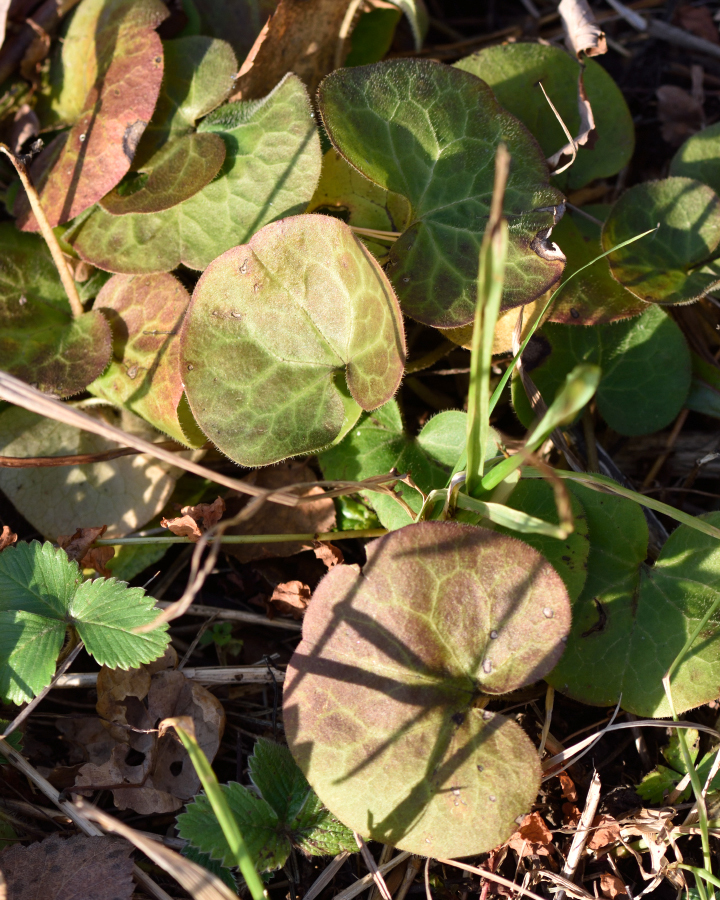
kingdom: Plantae
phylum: Tracheophyta
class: Magnoliopsida
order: Piperales
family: Aristolochiaceae
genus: Asarum
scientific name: Asarum europaeum
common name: Asarabacca
